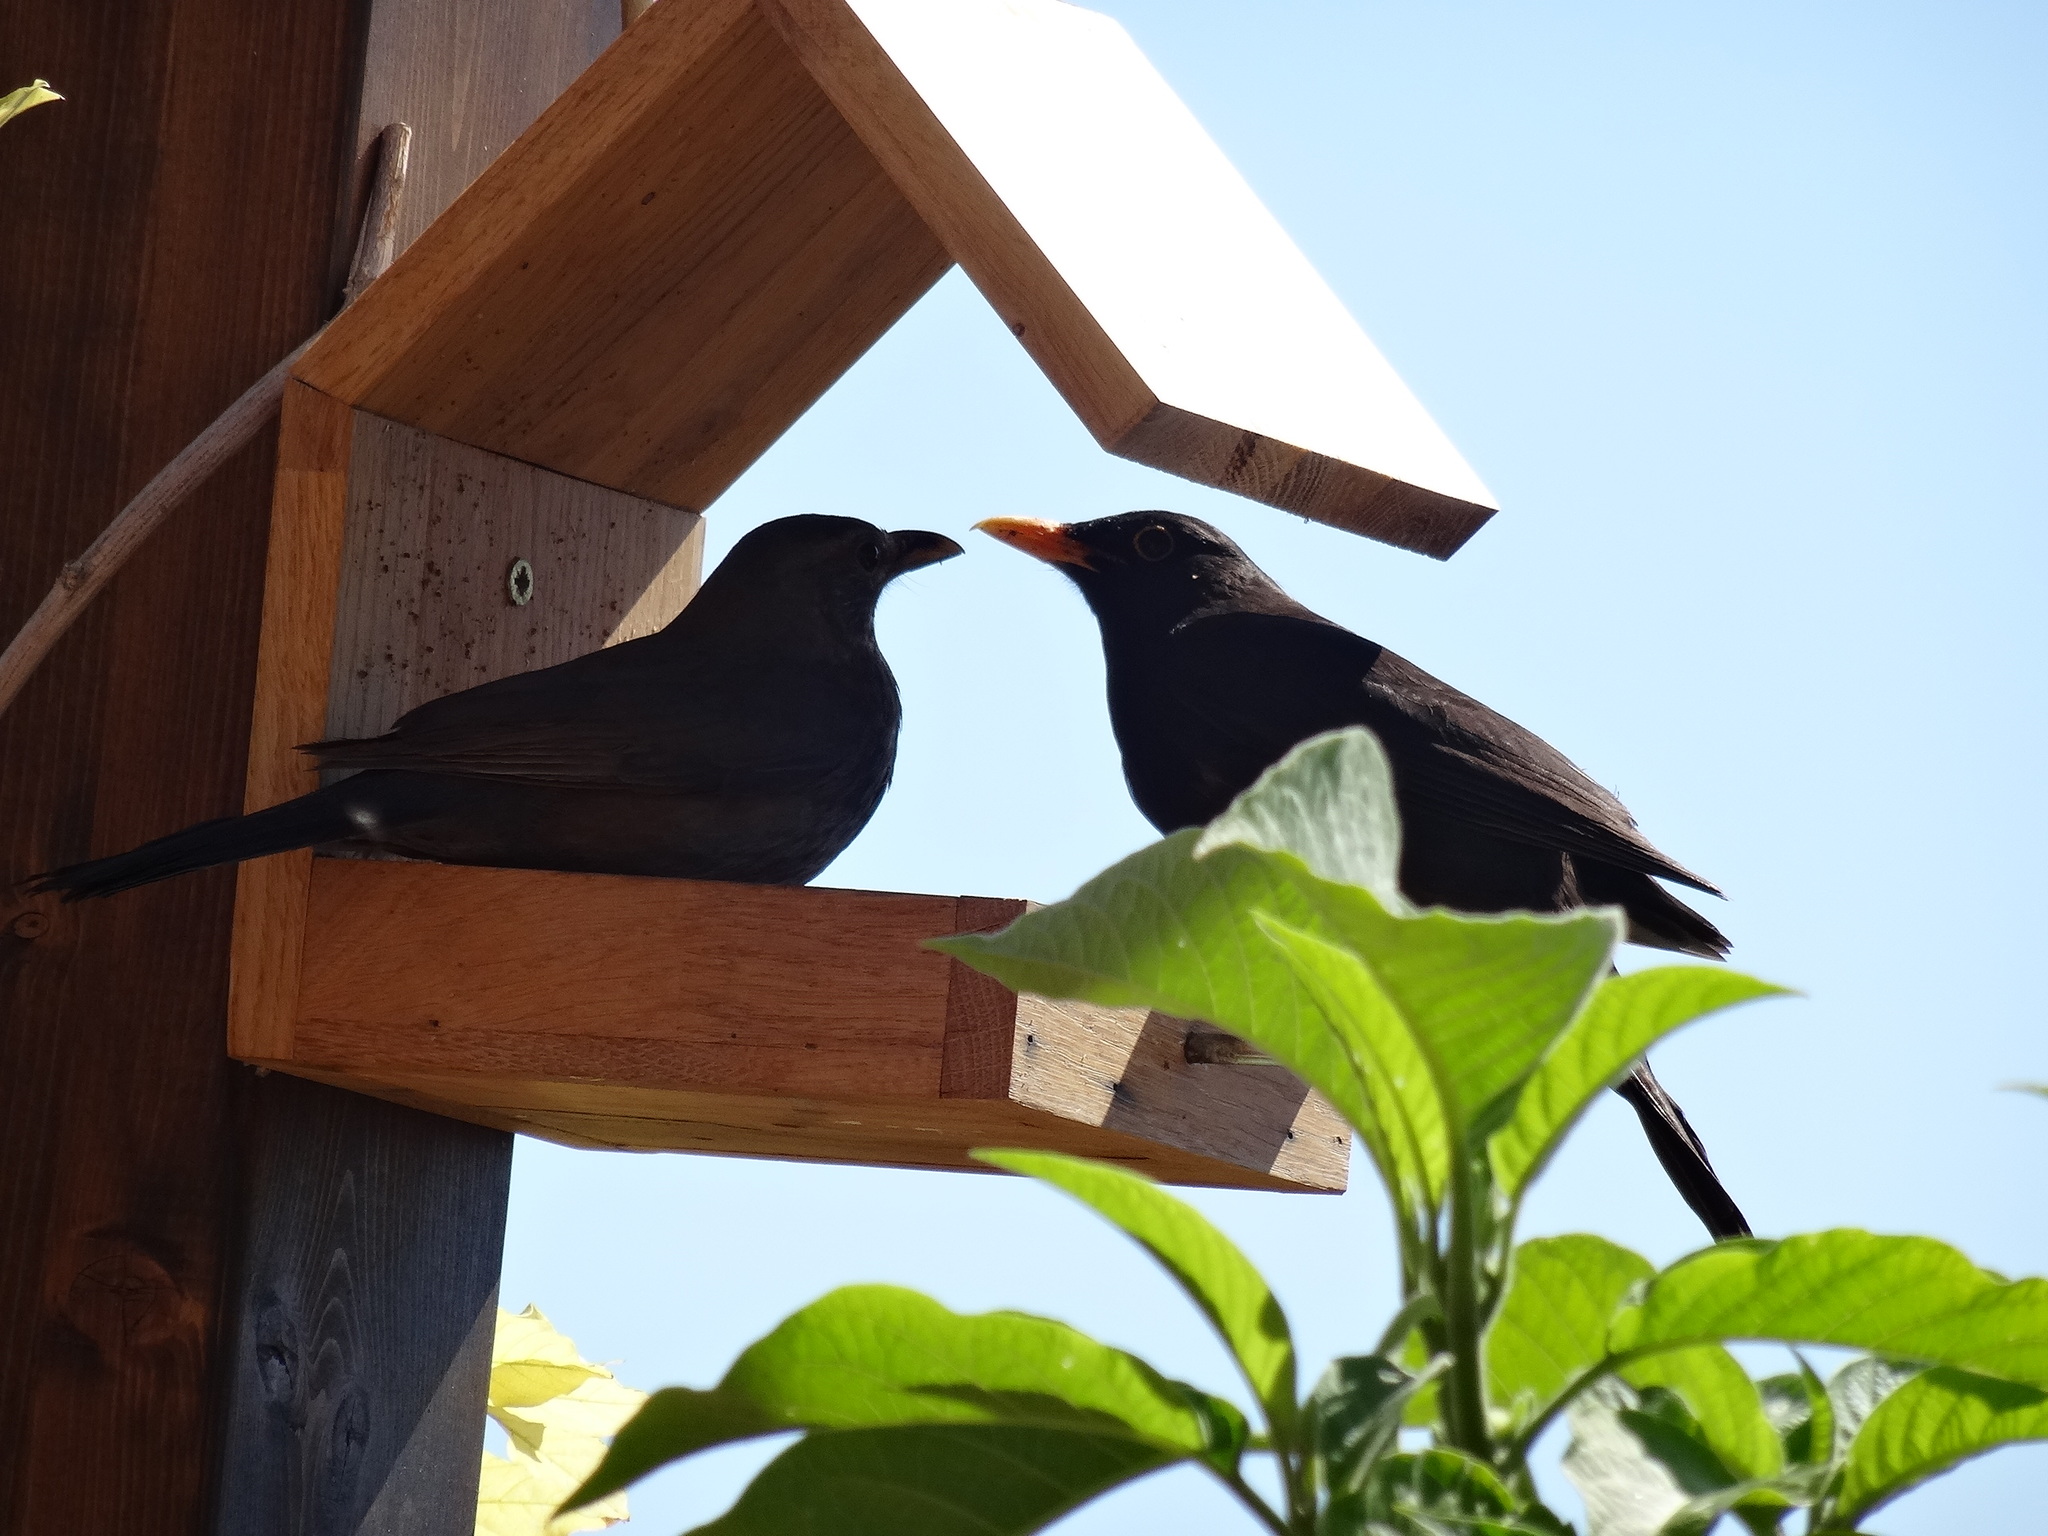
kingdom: Animalia
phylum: Chordata
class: Aves
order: Passeriformes
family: Turdidae
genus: Turdus
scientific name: Turdus merula
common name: Common blackbird
